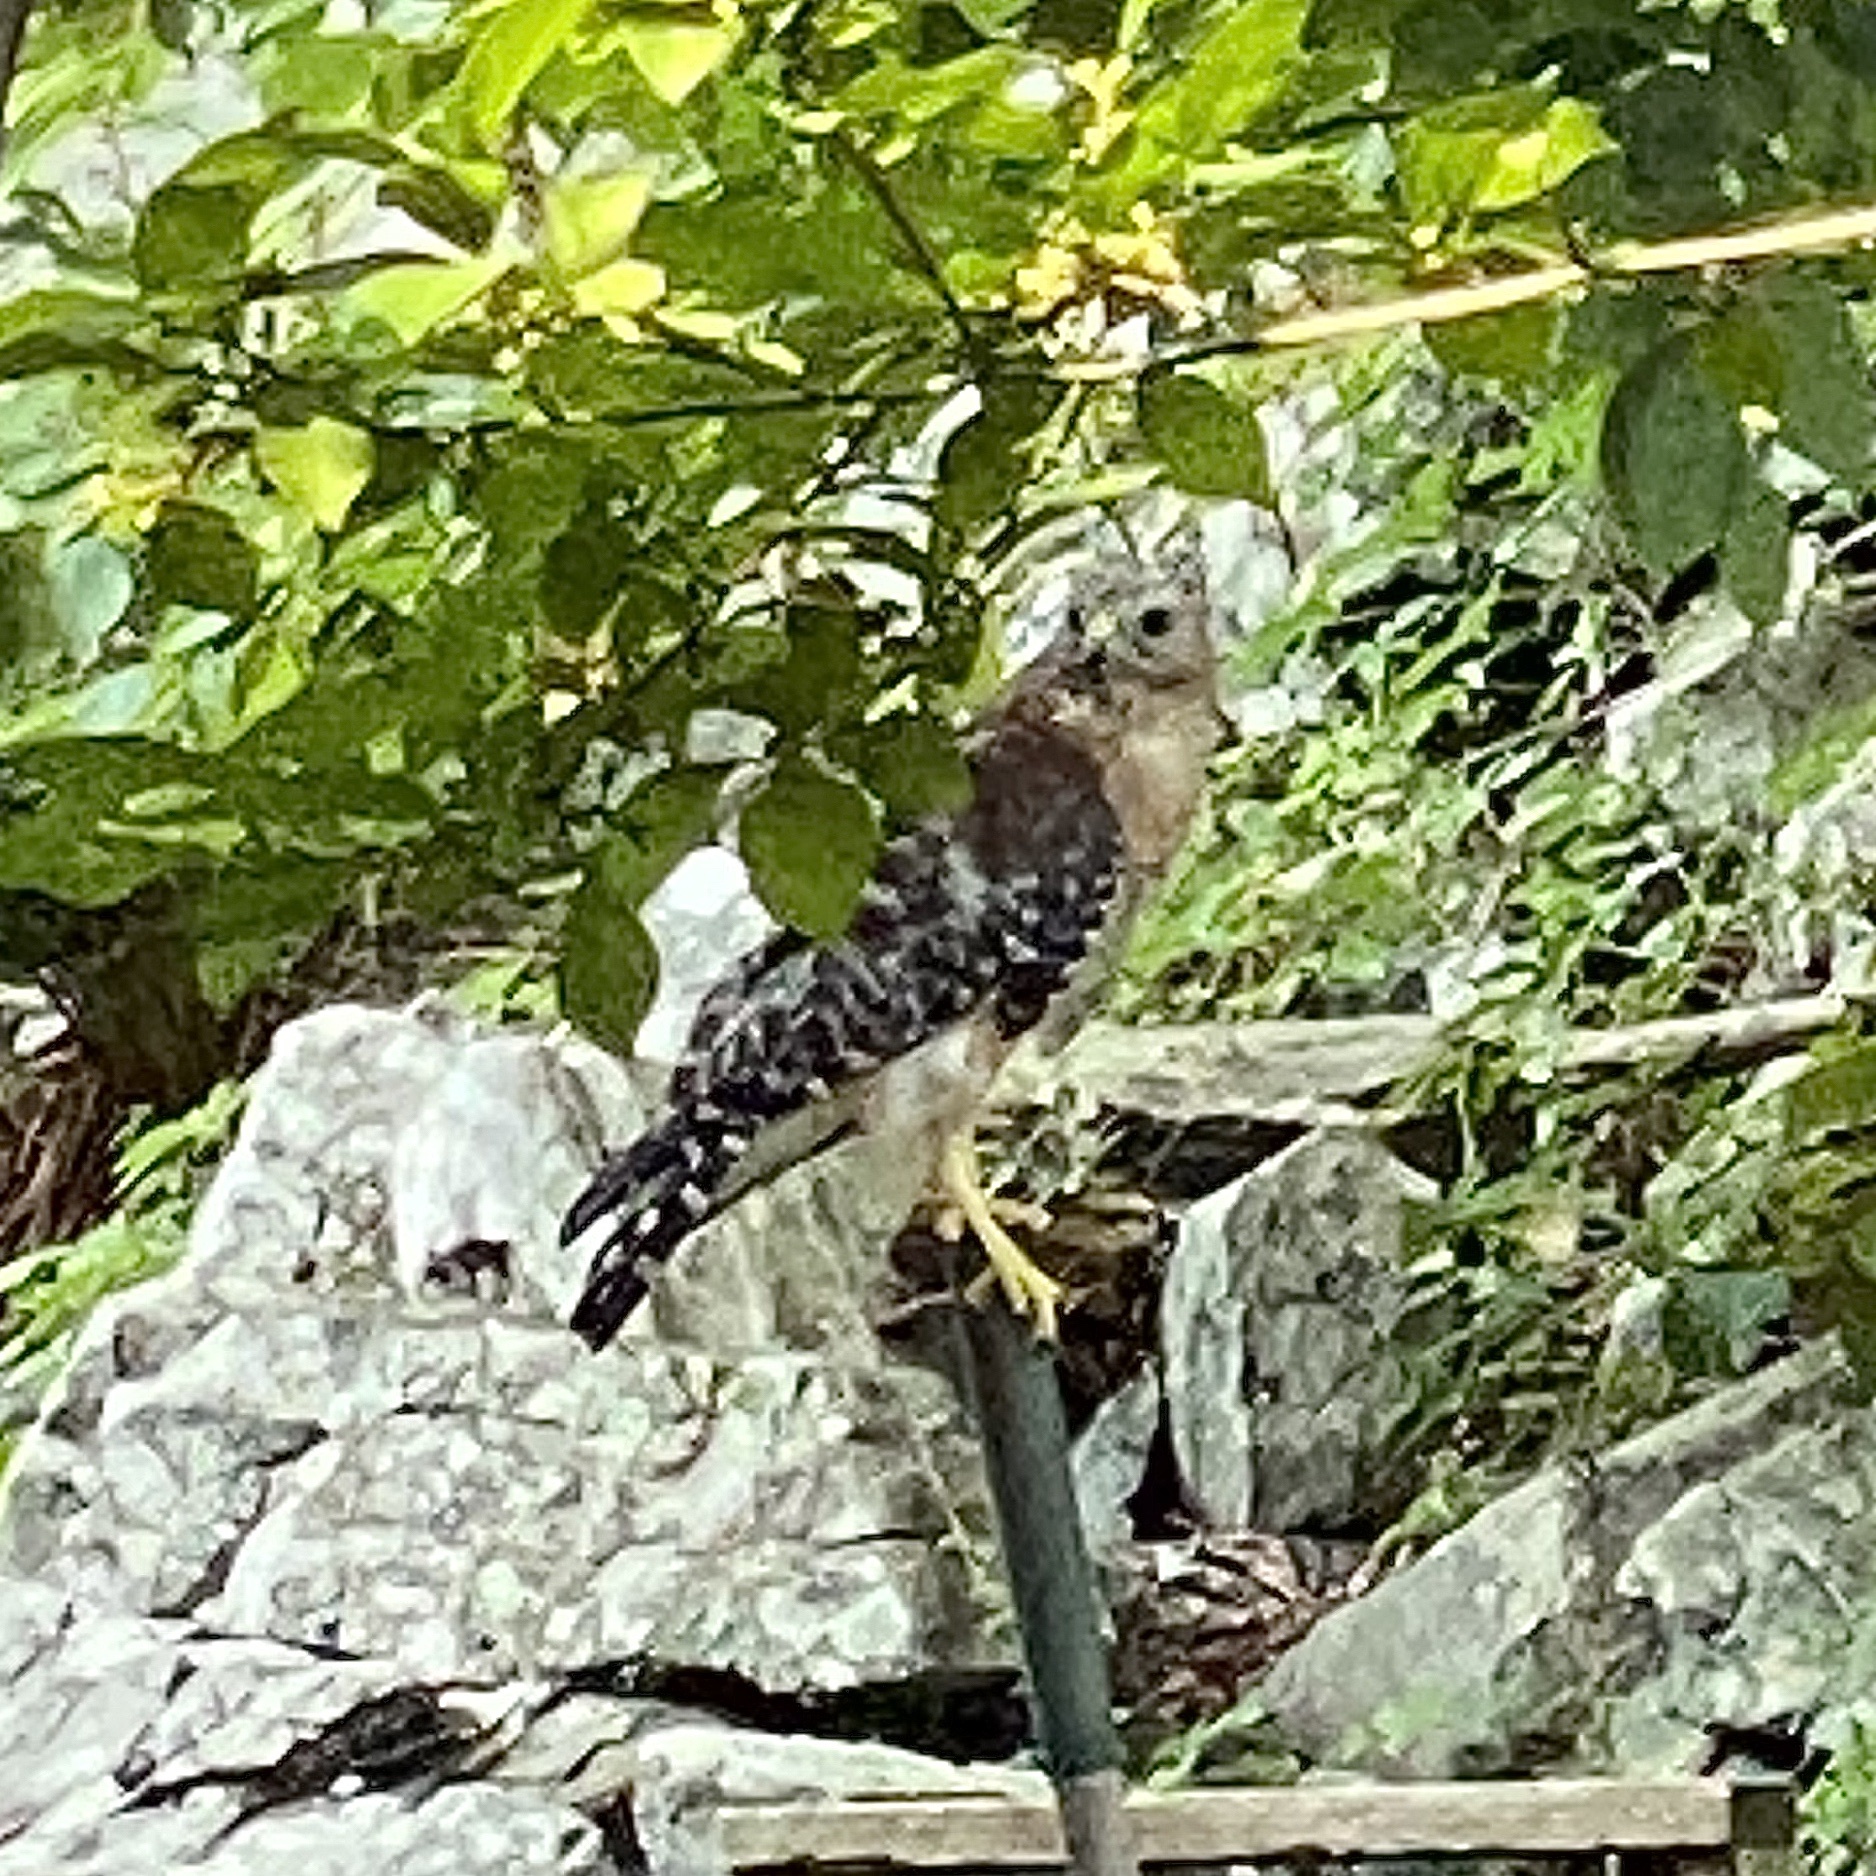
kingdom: Animalia
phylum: Chordata
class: Aves
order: Accipitriformes
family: Accipitridae
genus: Buteo
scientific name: Buteo lineatus
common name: Red-shouldered hawk
